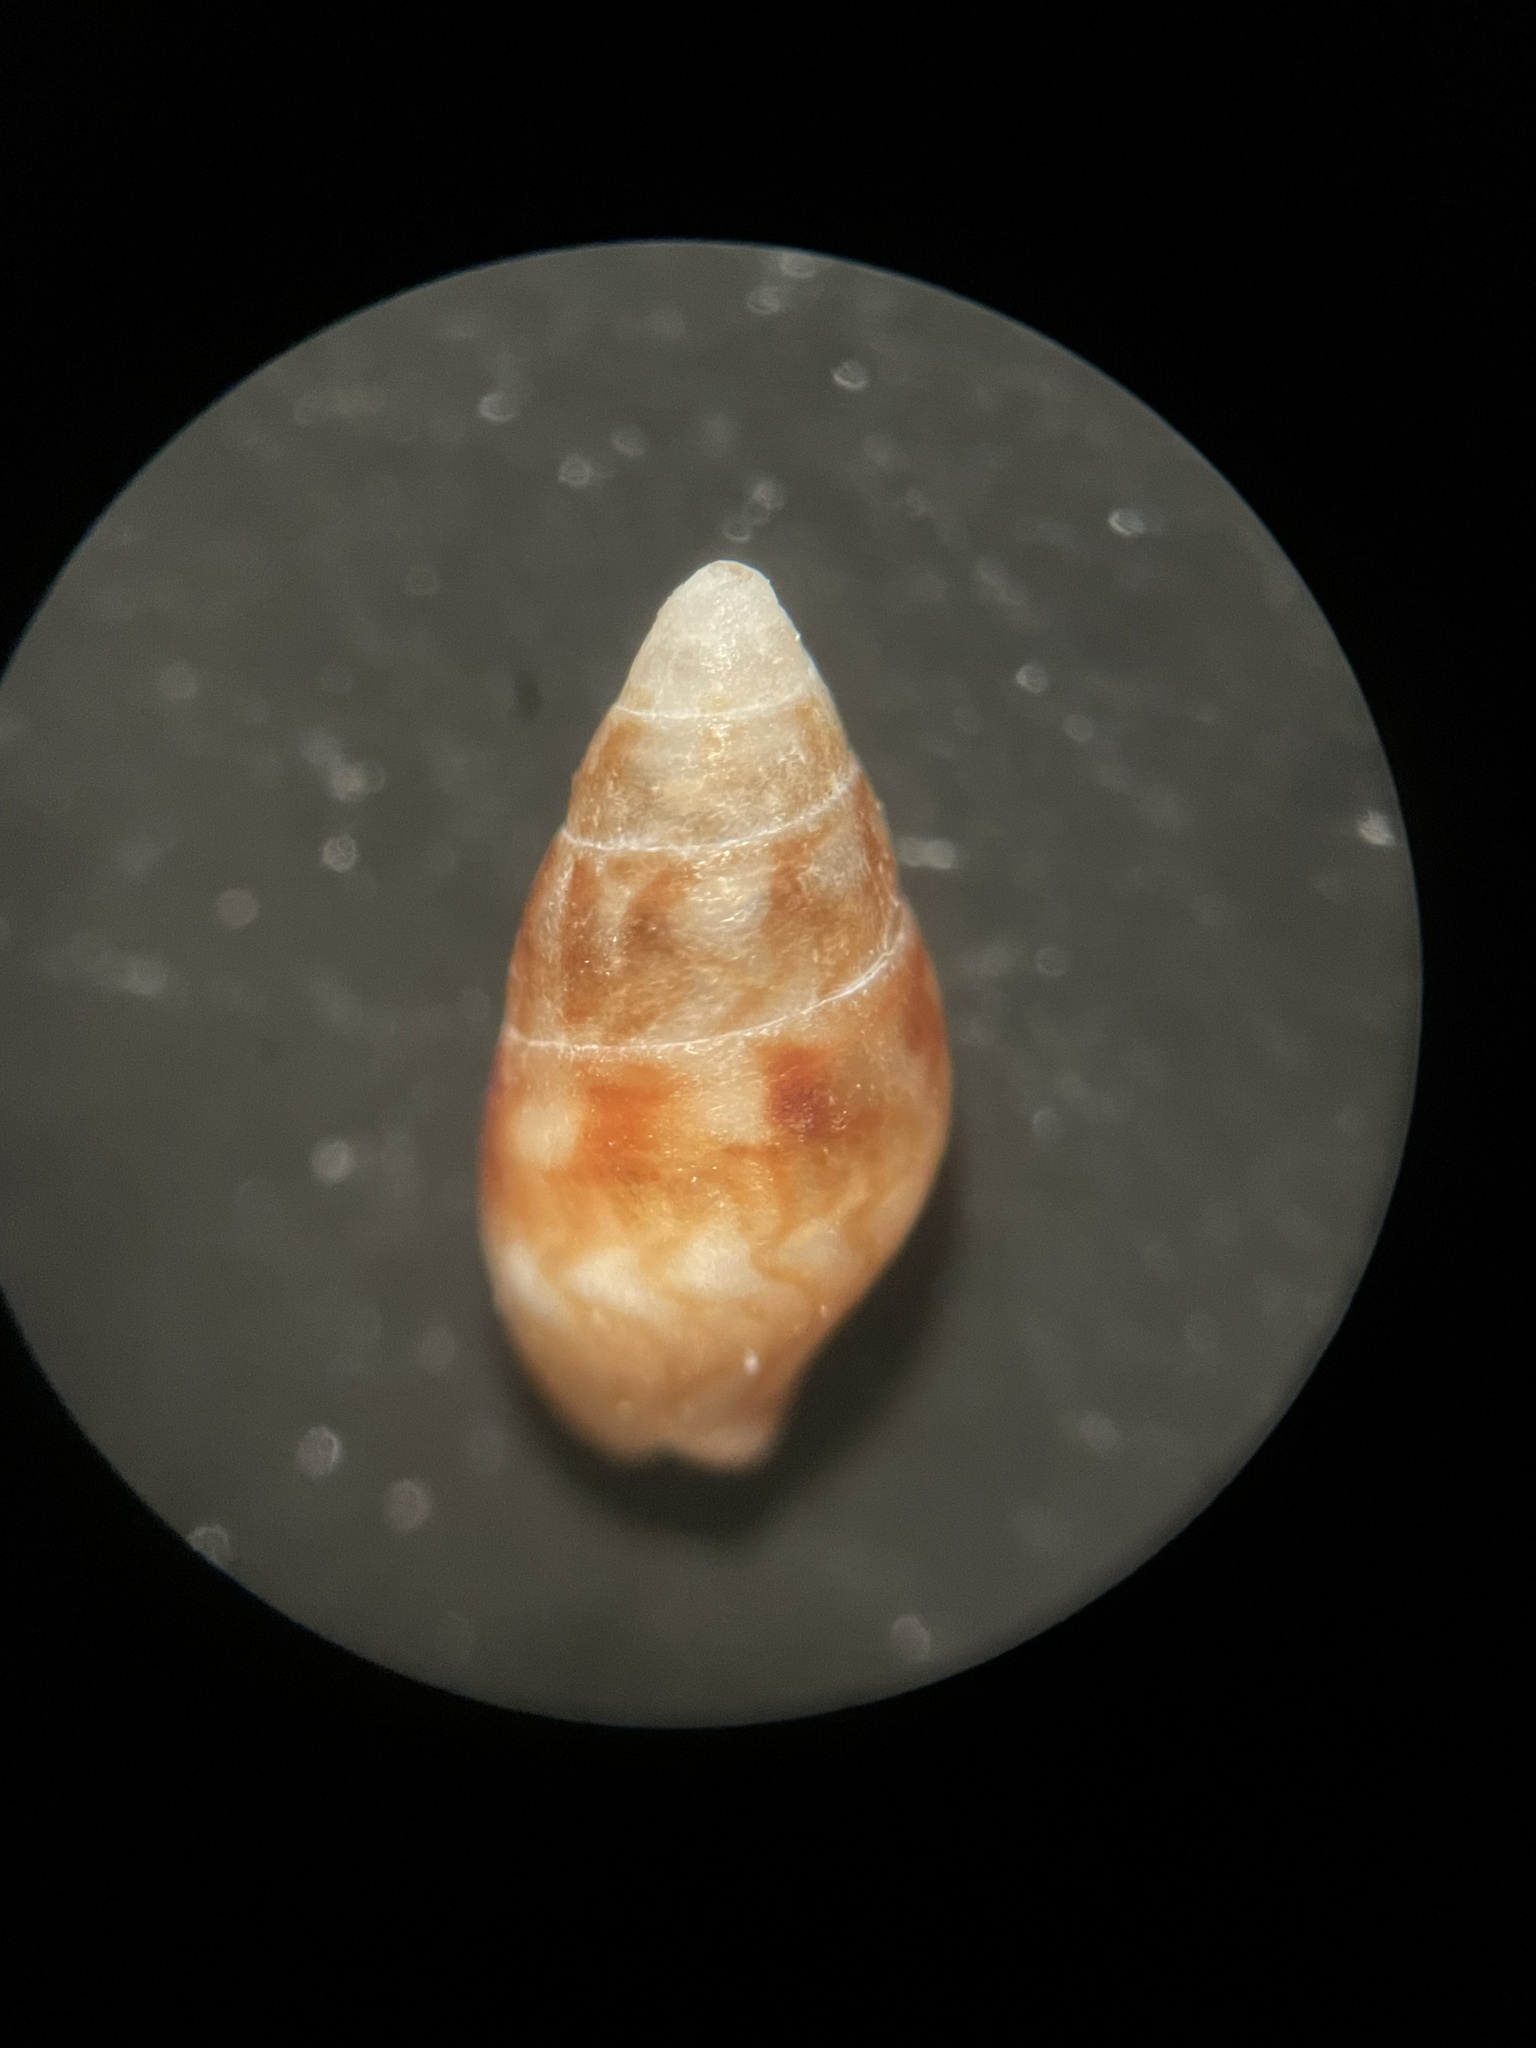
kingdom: Animalia
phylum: Mollusca
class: Gastropoda
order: Neogastropoda
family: Columbellidae
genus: Astyris
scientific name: Astyris lunata
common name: Lunar dovesnail
